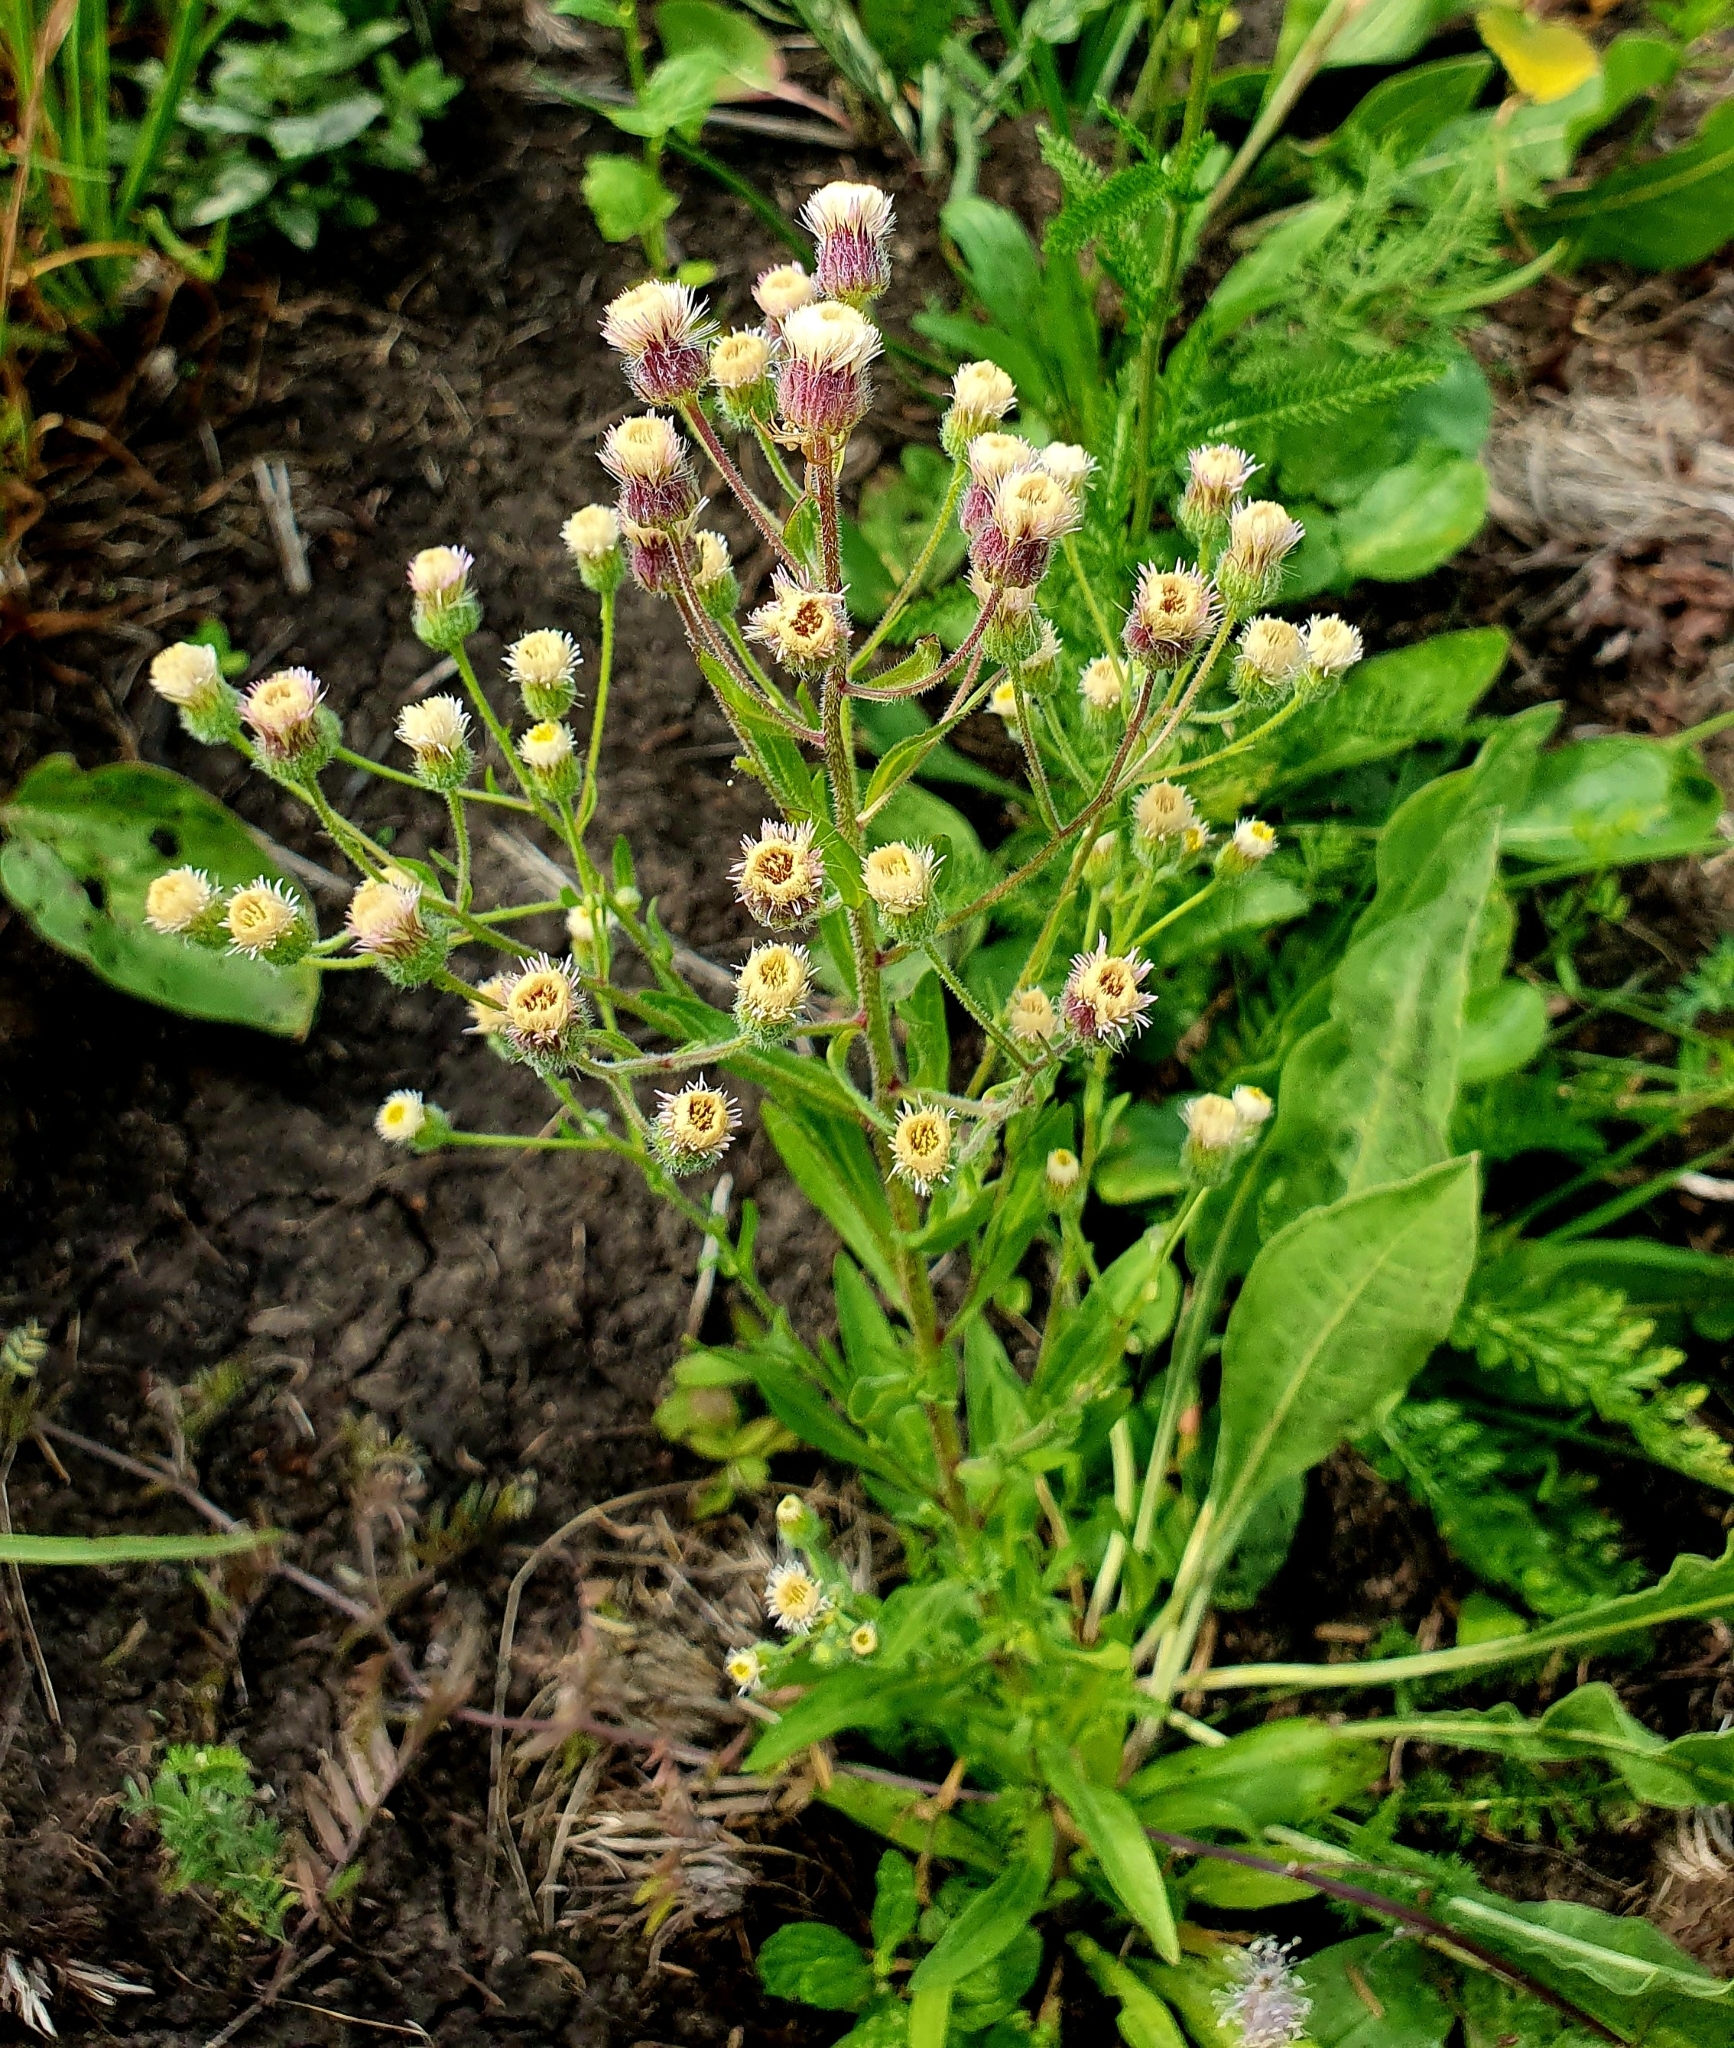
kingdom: Plantae
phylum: Tracheophyta
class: Magnoliopsida
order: Asterales
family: Asteraceae
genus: Erigeron
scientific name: Erigeron acris
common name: Blue fleabane
